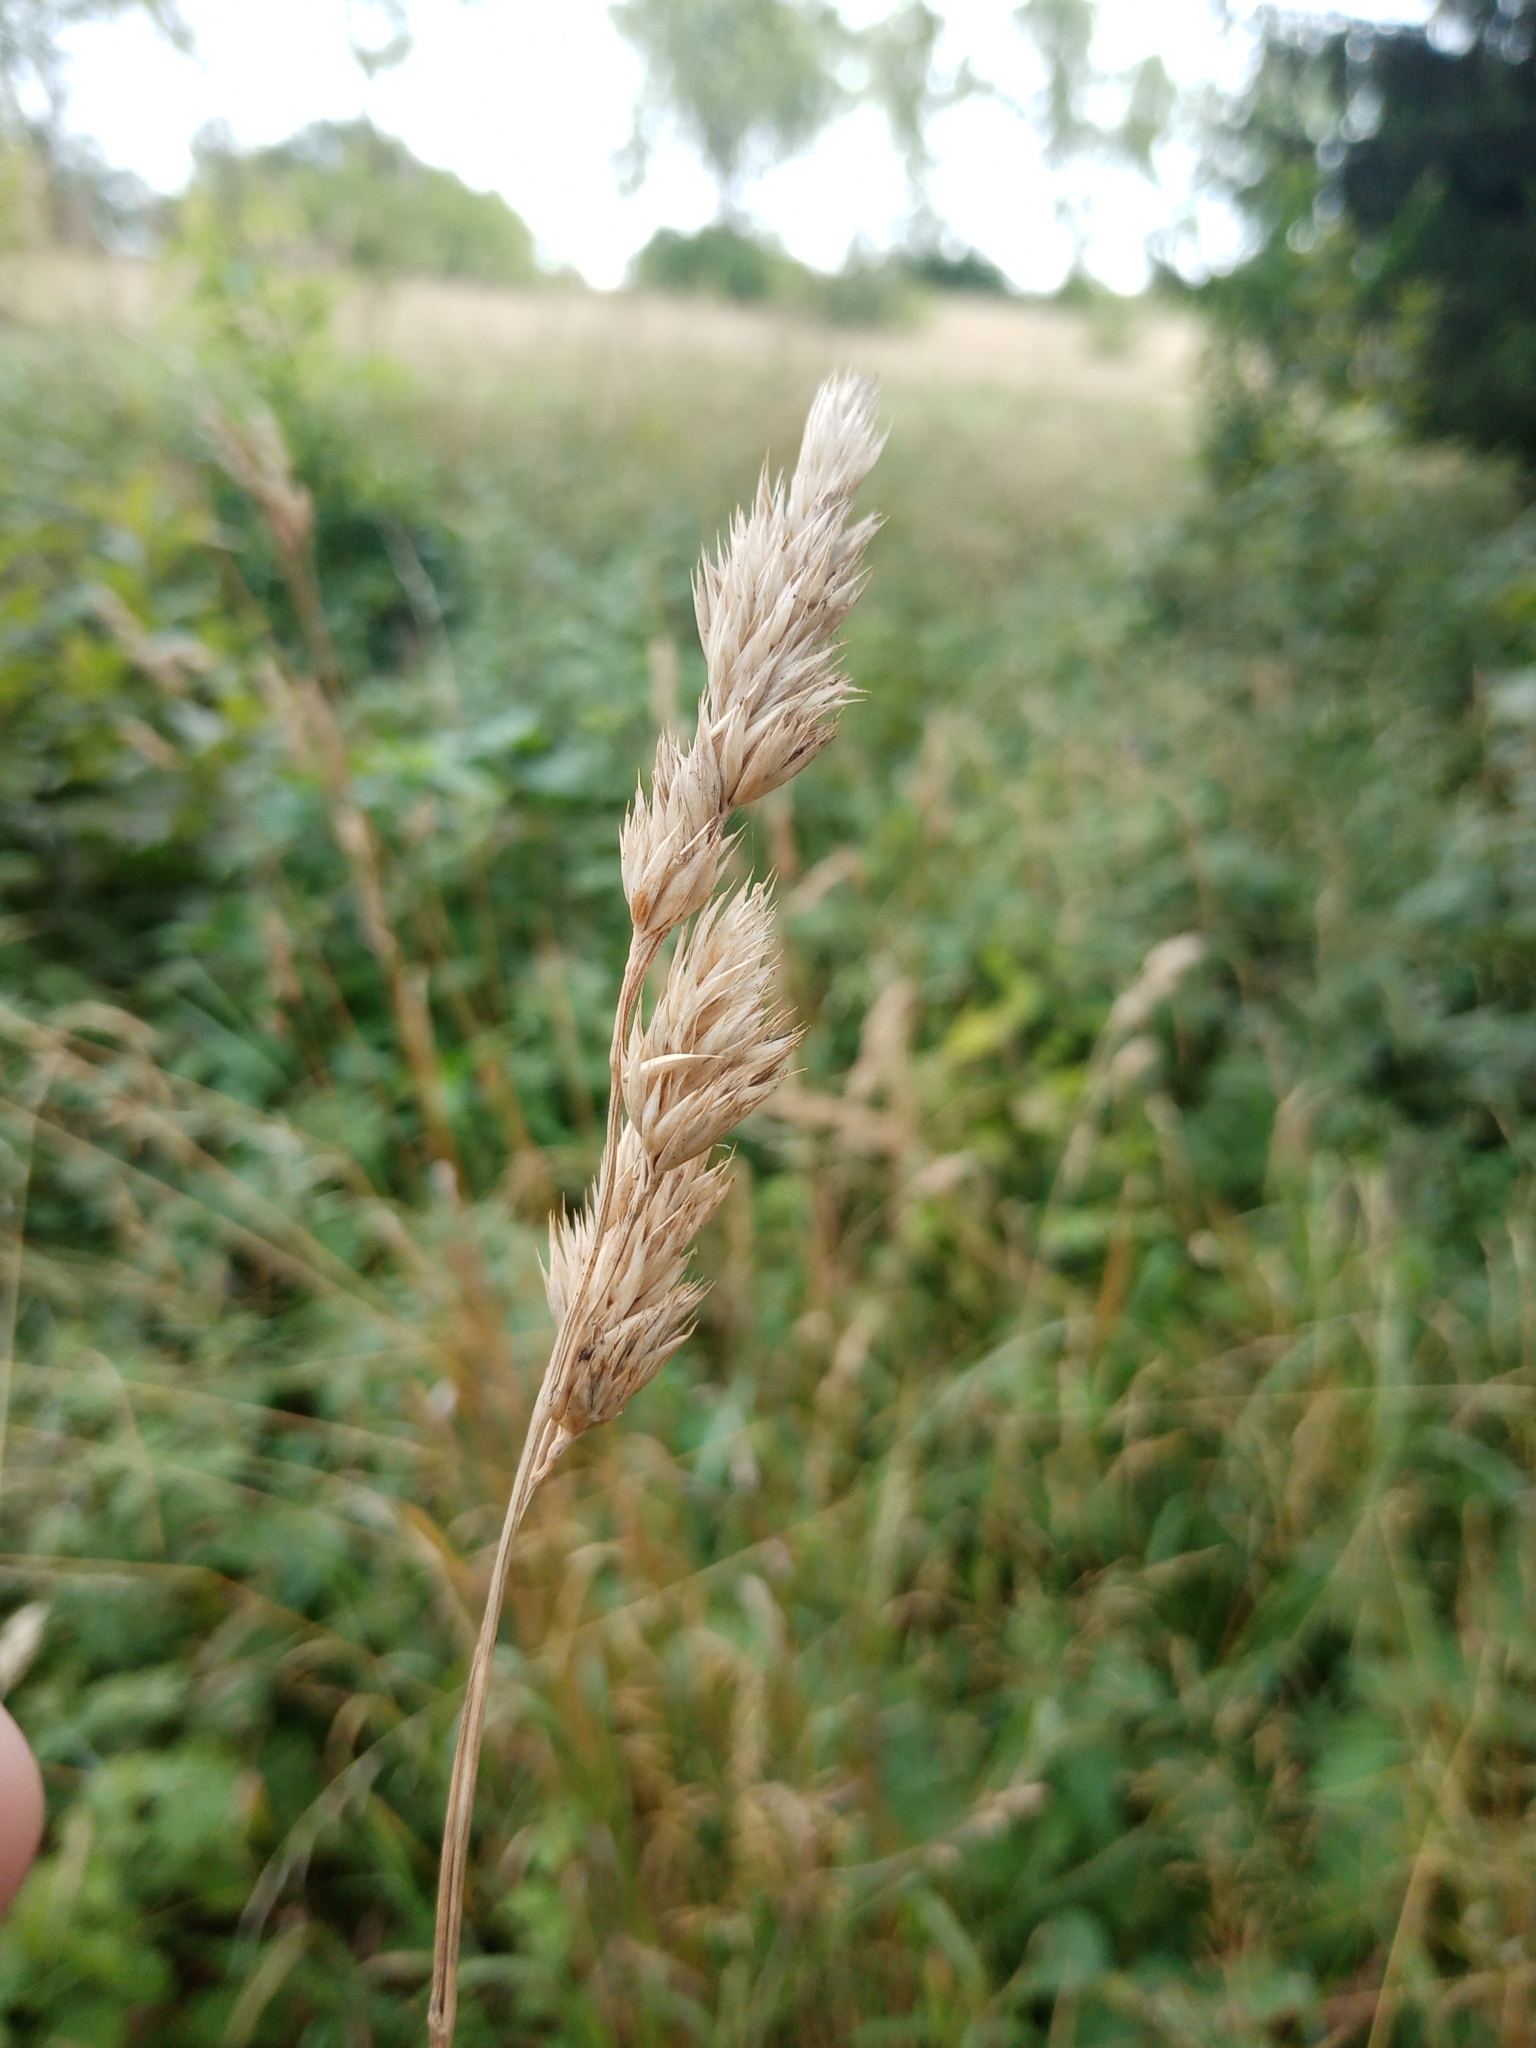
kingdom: Plantae
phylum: Tracheophyta
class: Liliopsida
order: Poales
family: Poaceae
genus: Dactylis
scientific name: Dactylis glomerata
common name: Orchardgrass
